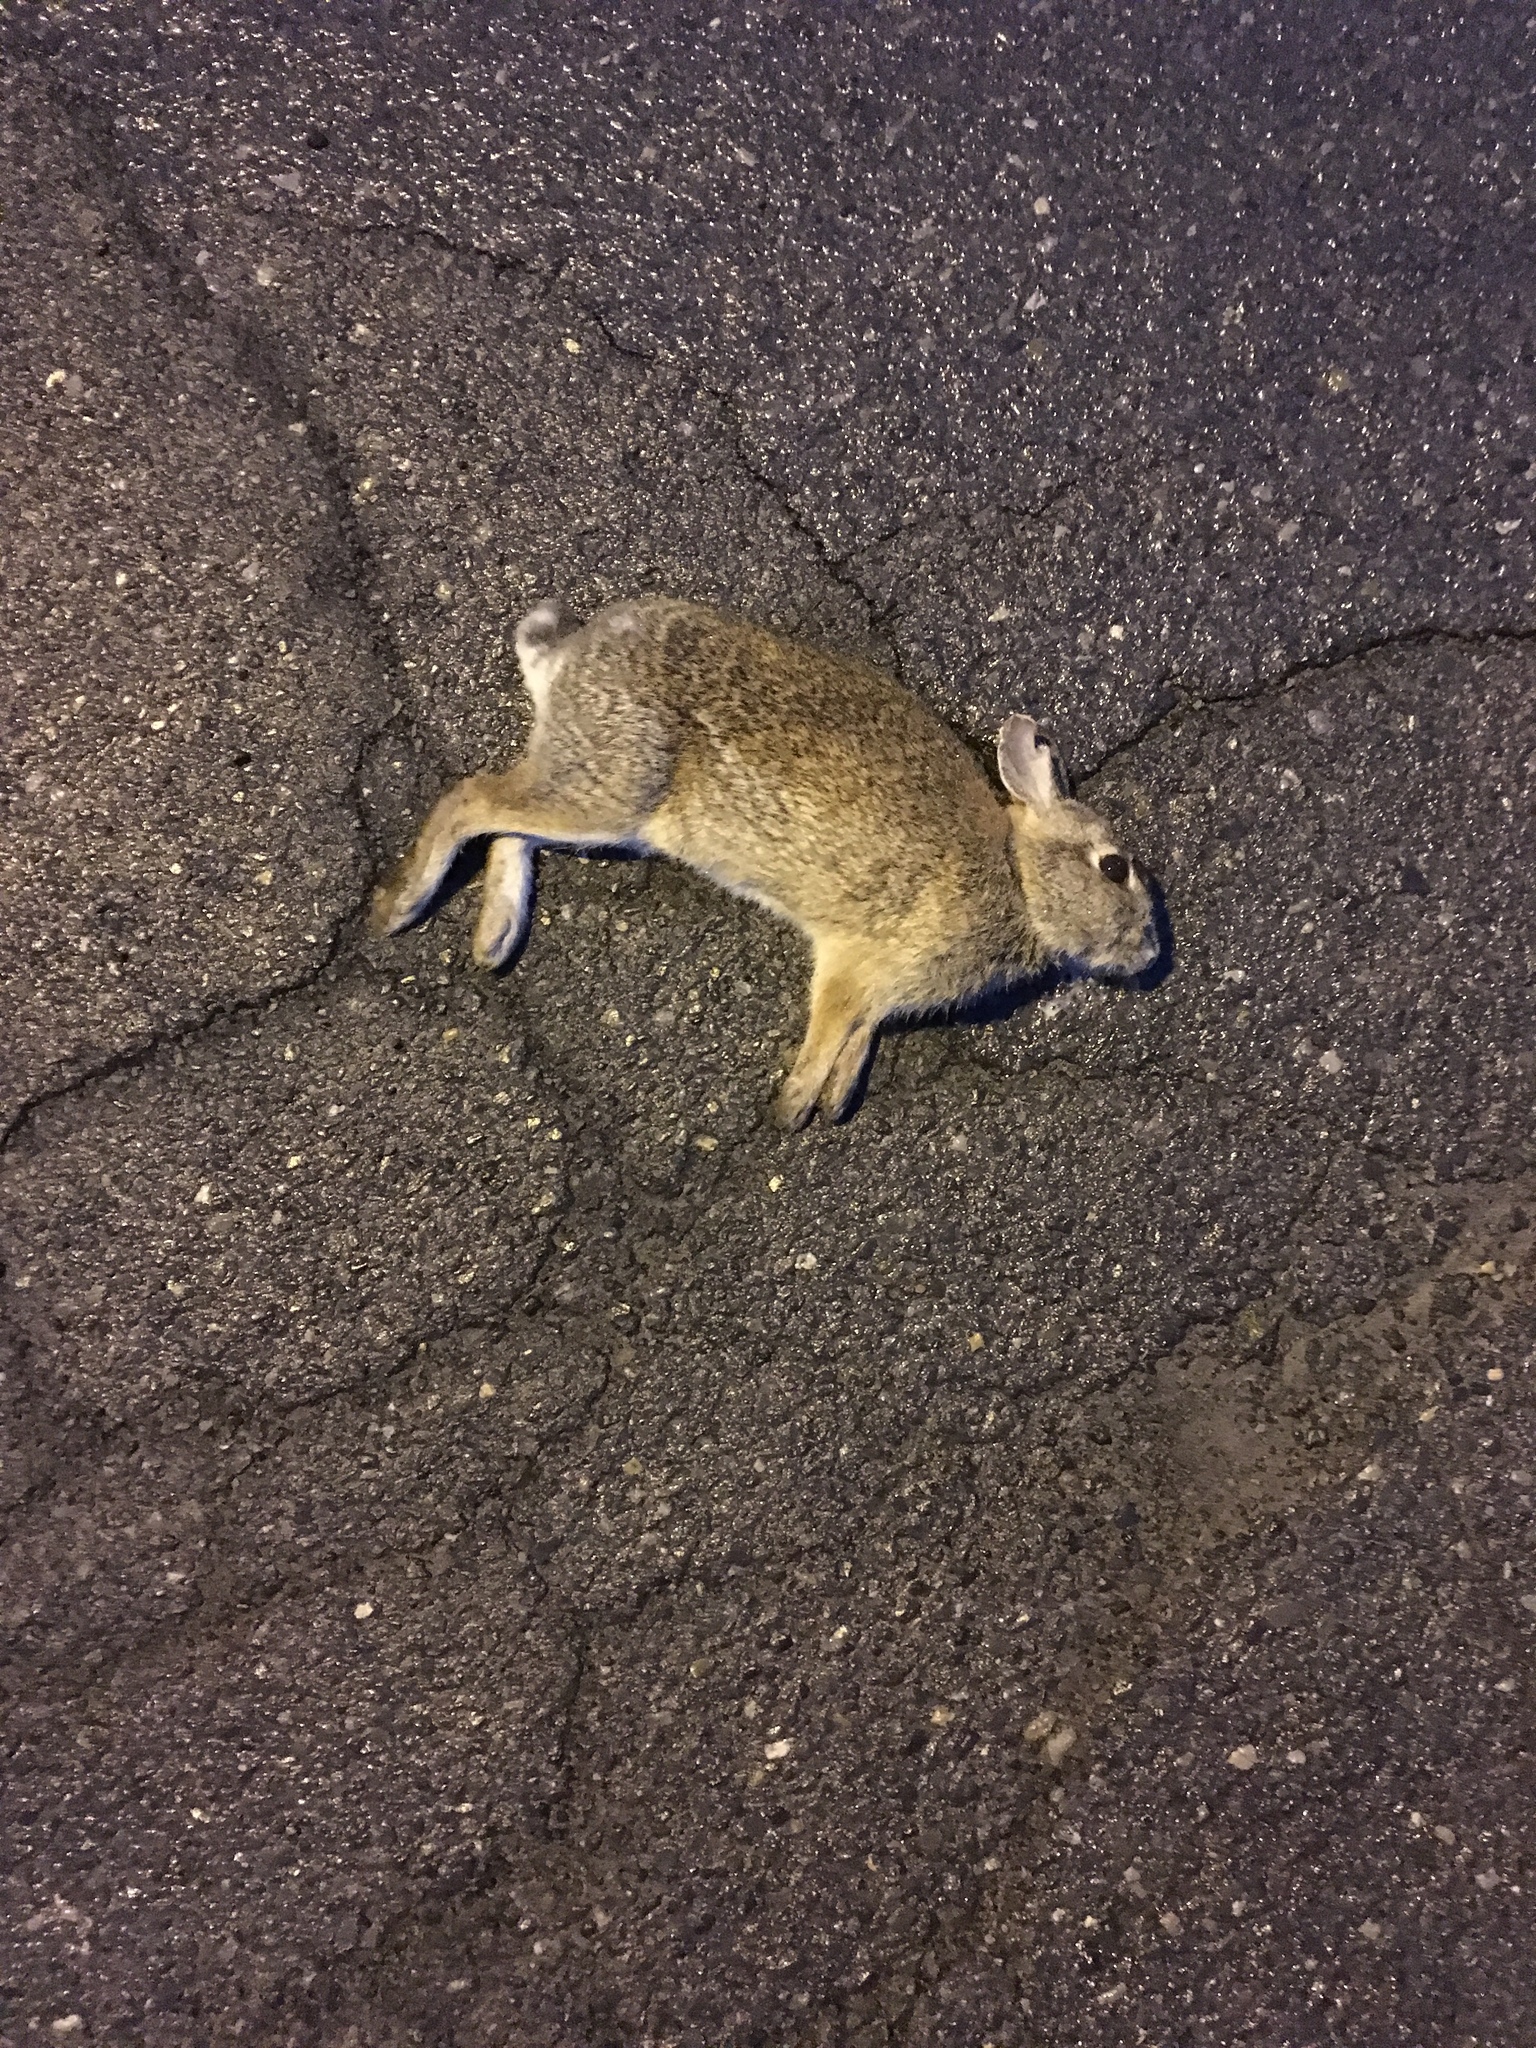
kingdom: Animalia
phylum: Chordata
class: Mammalia
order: Lagomorpha
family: Leporidae
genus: Sylvilagus
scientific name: Sylvilagus floridanus
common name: Eastern cottontail
